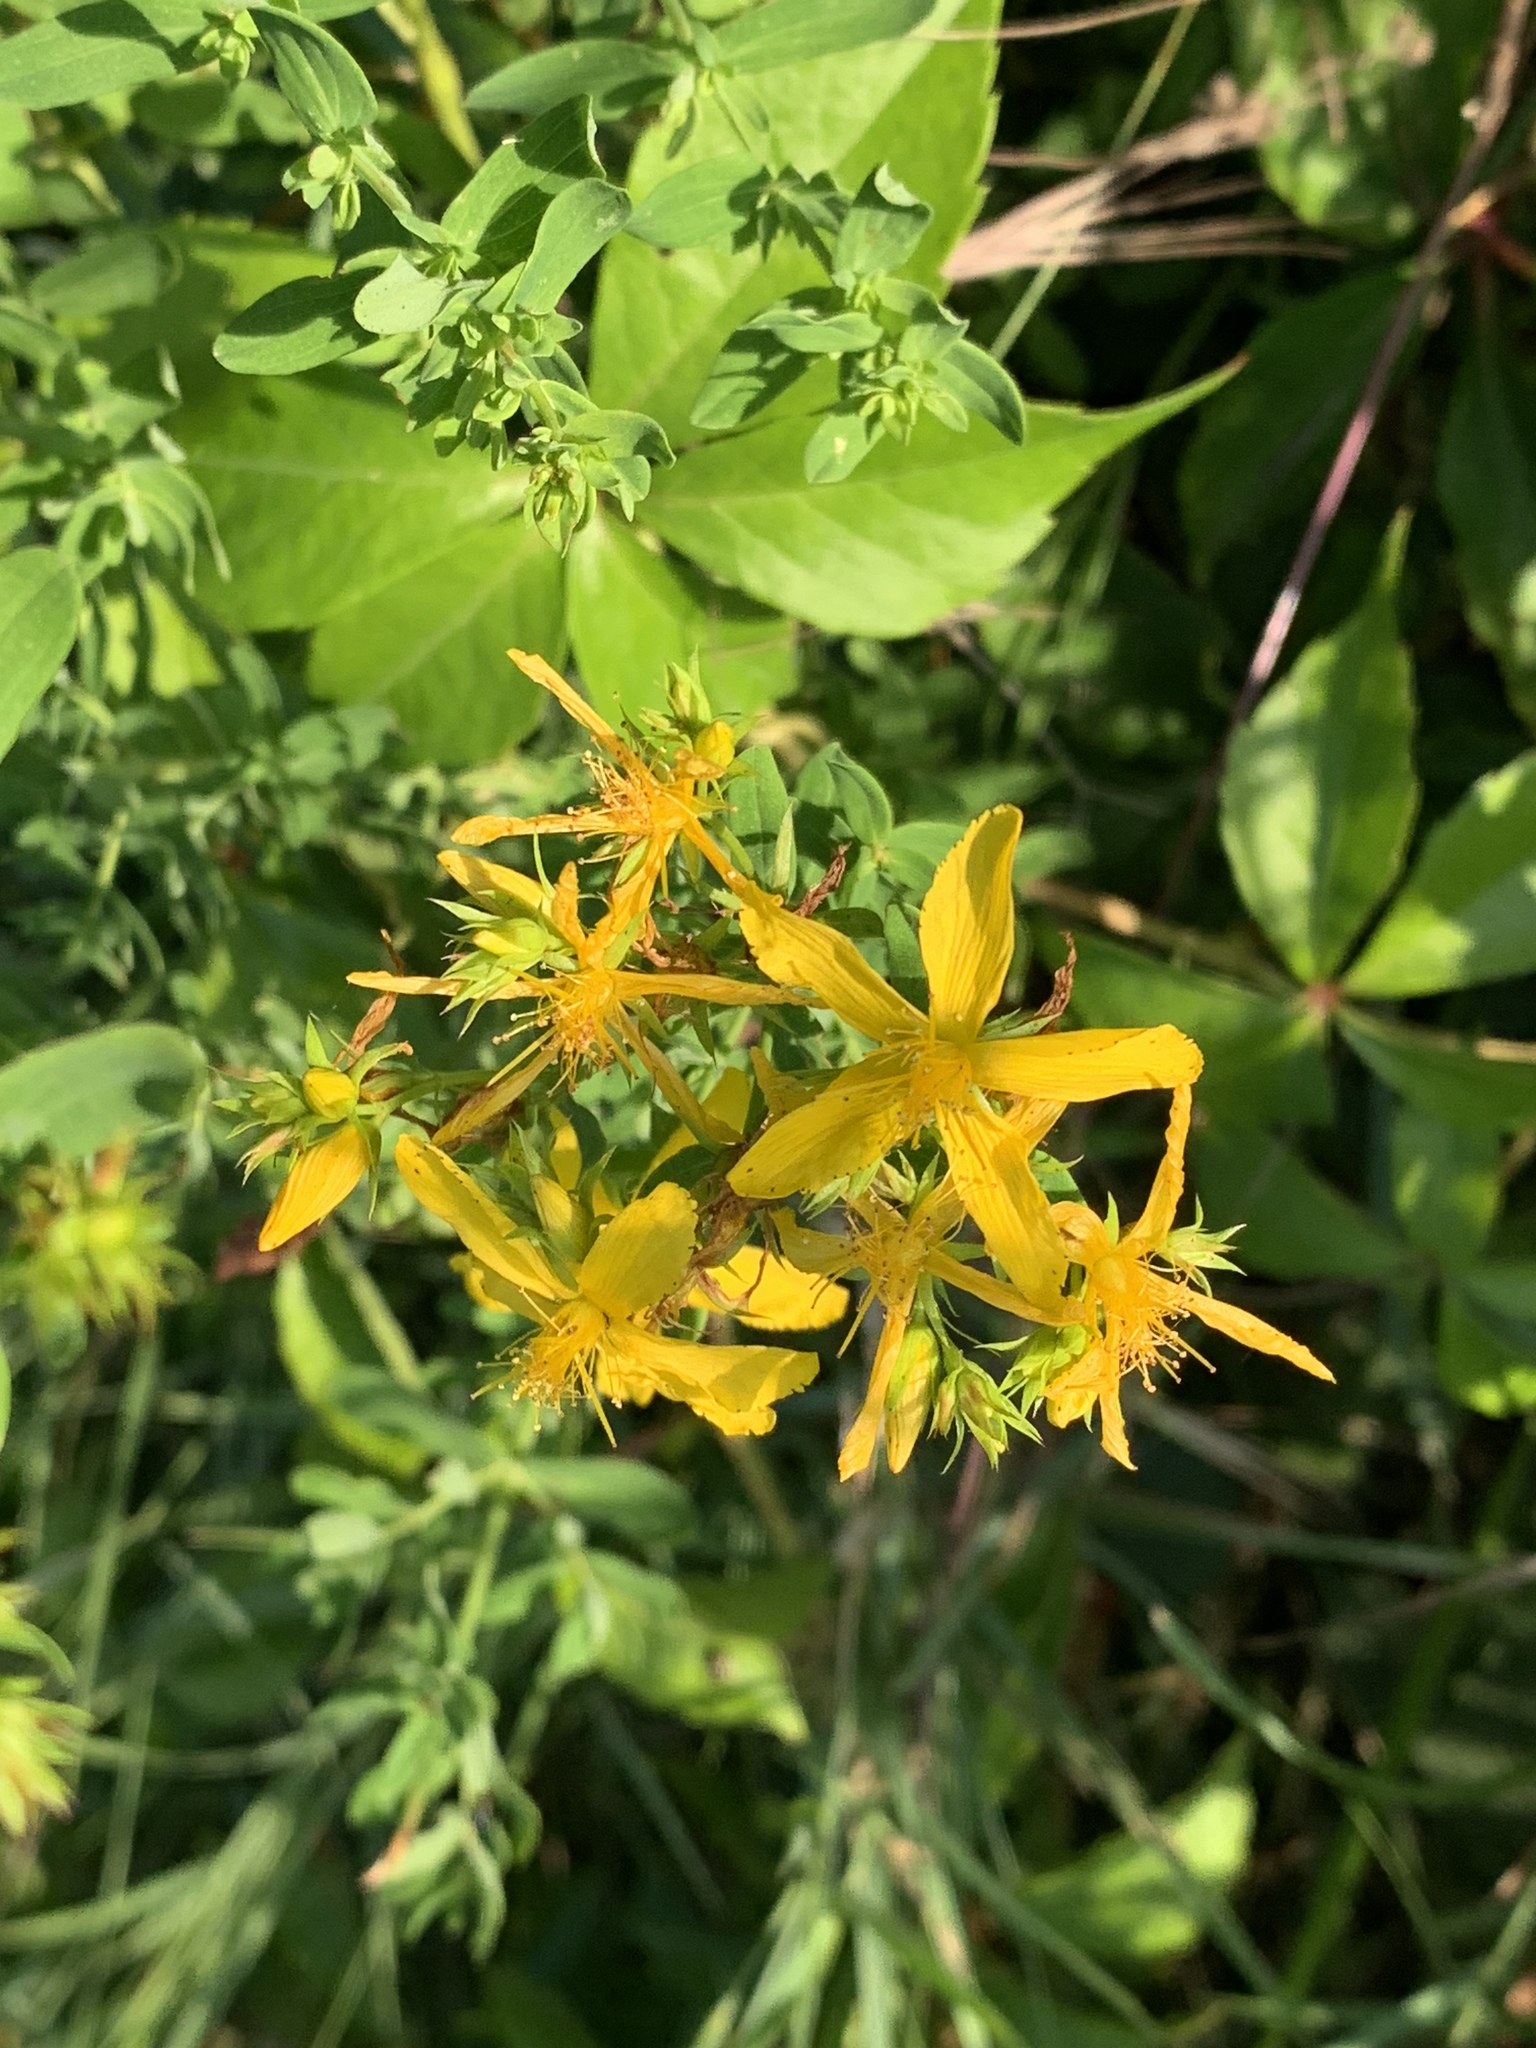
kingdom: Plantae
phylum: Tracheophyta
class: Magnoliopsida
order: Malpighiales
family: Hypericaceae
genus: Hypericum
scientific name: Hypericum perforatum
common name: Common st. johnswort
